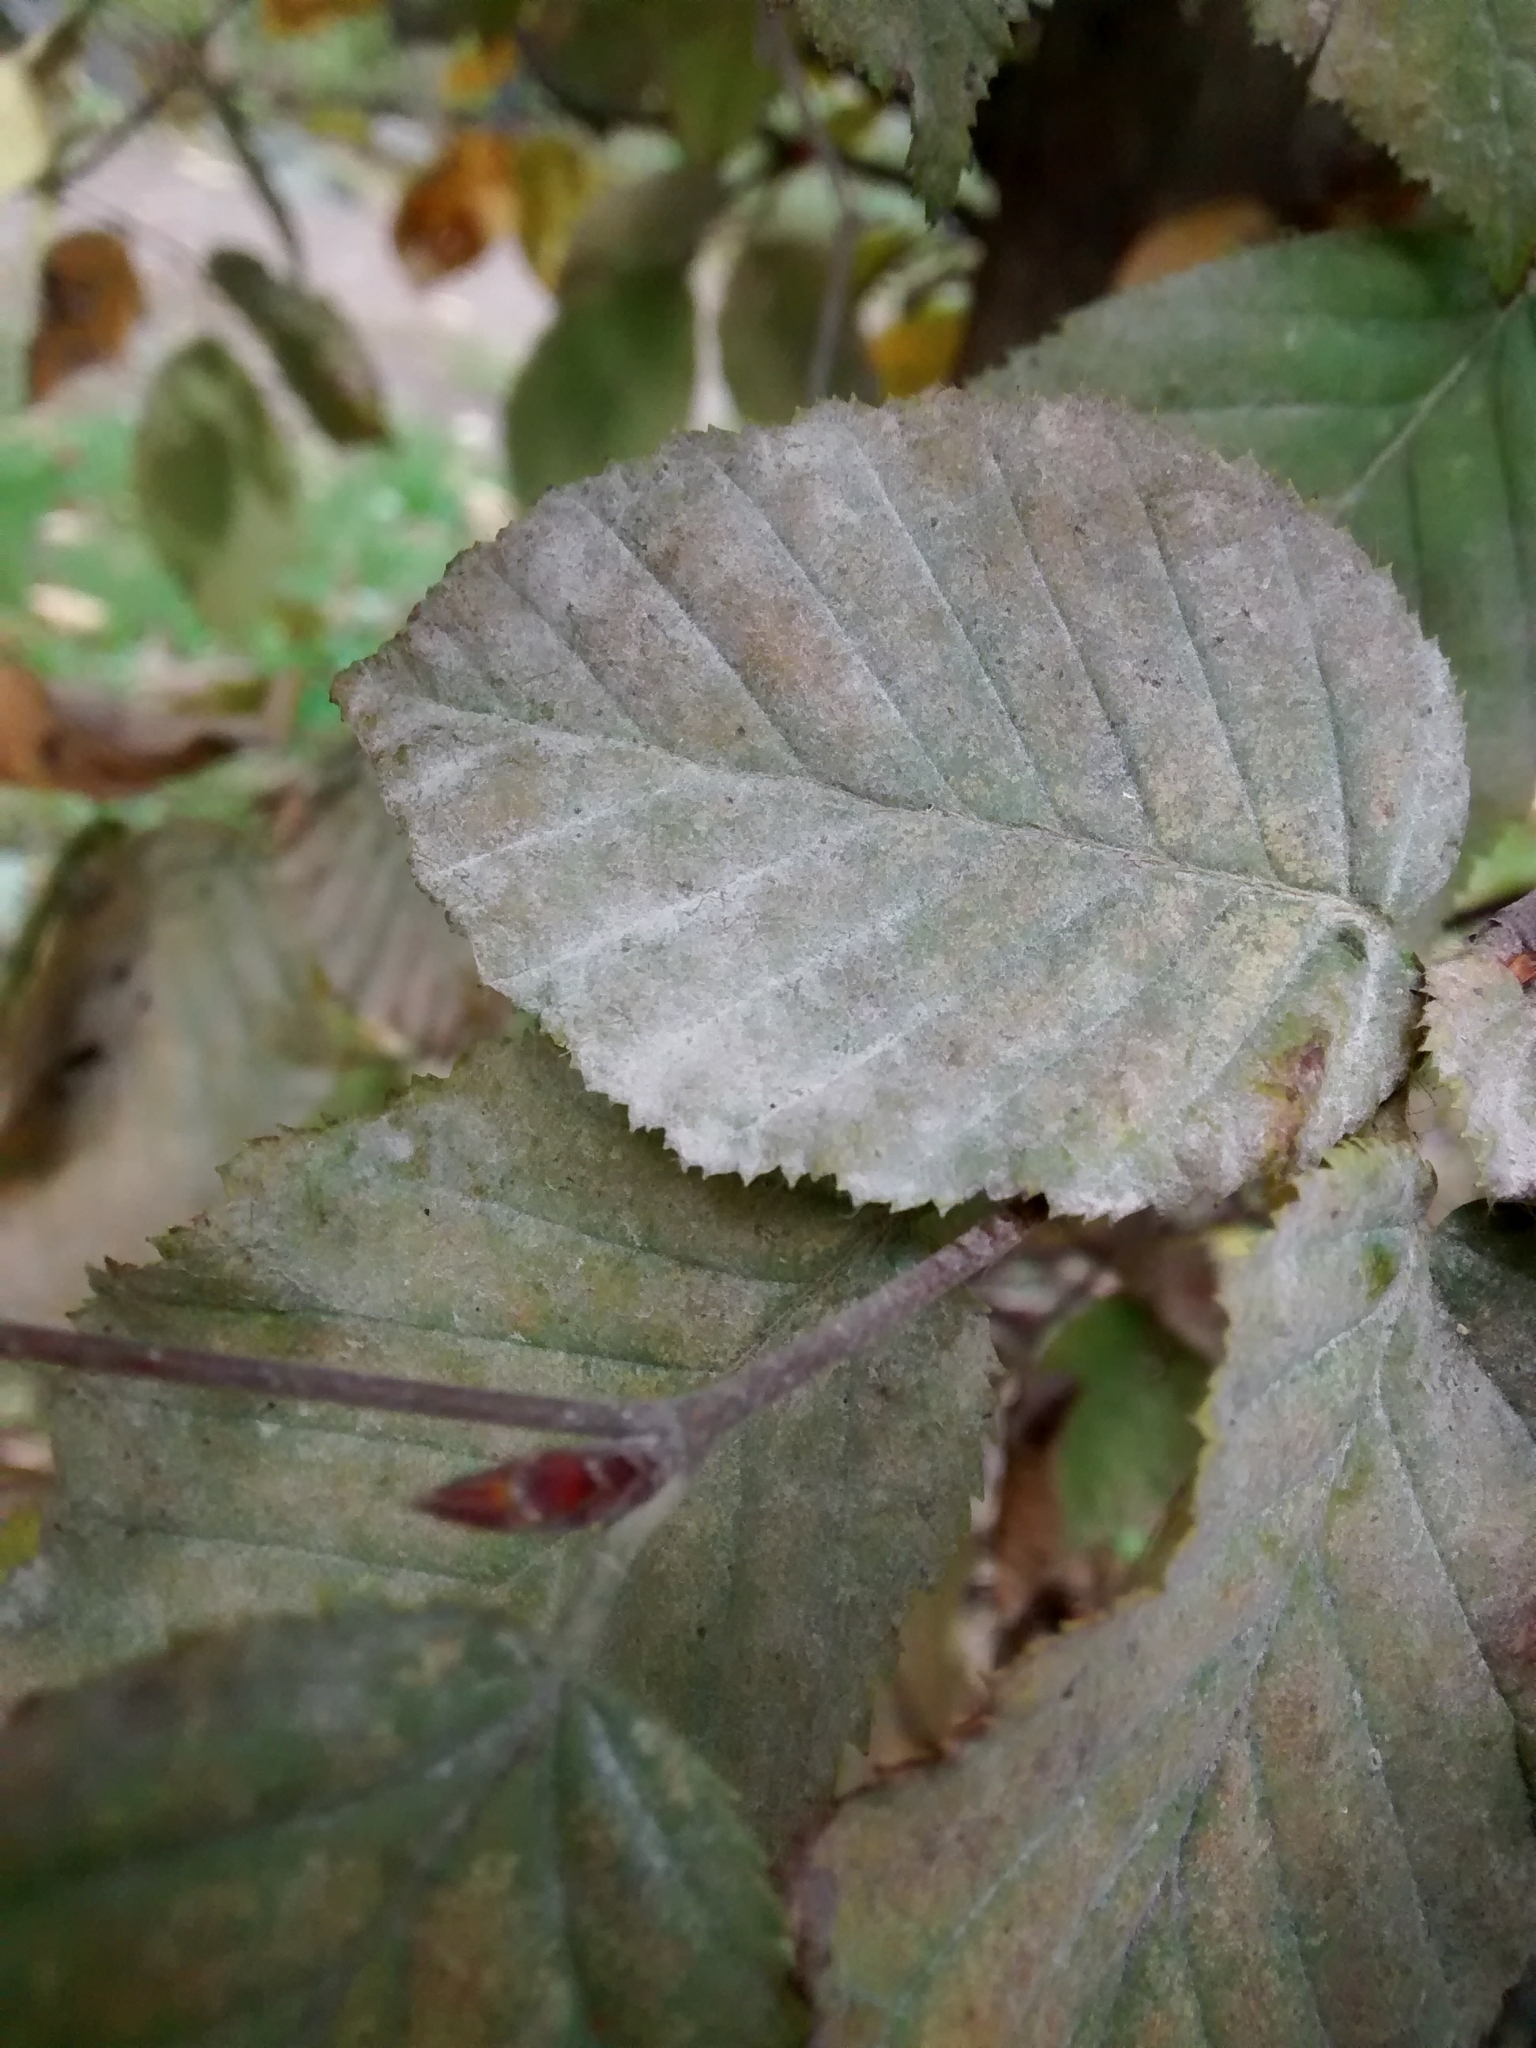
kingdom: Fungi
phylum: Ascomycota
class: Leotiomycetes
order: Helotiales
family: Erysiphaceae
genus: Erysiphe
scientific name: Erysiphe arcuata
